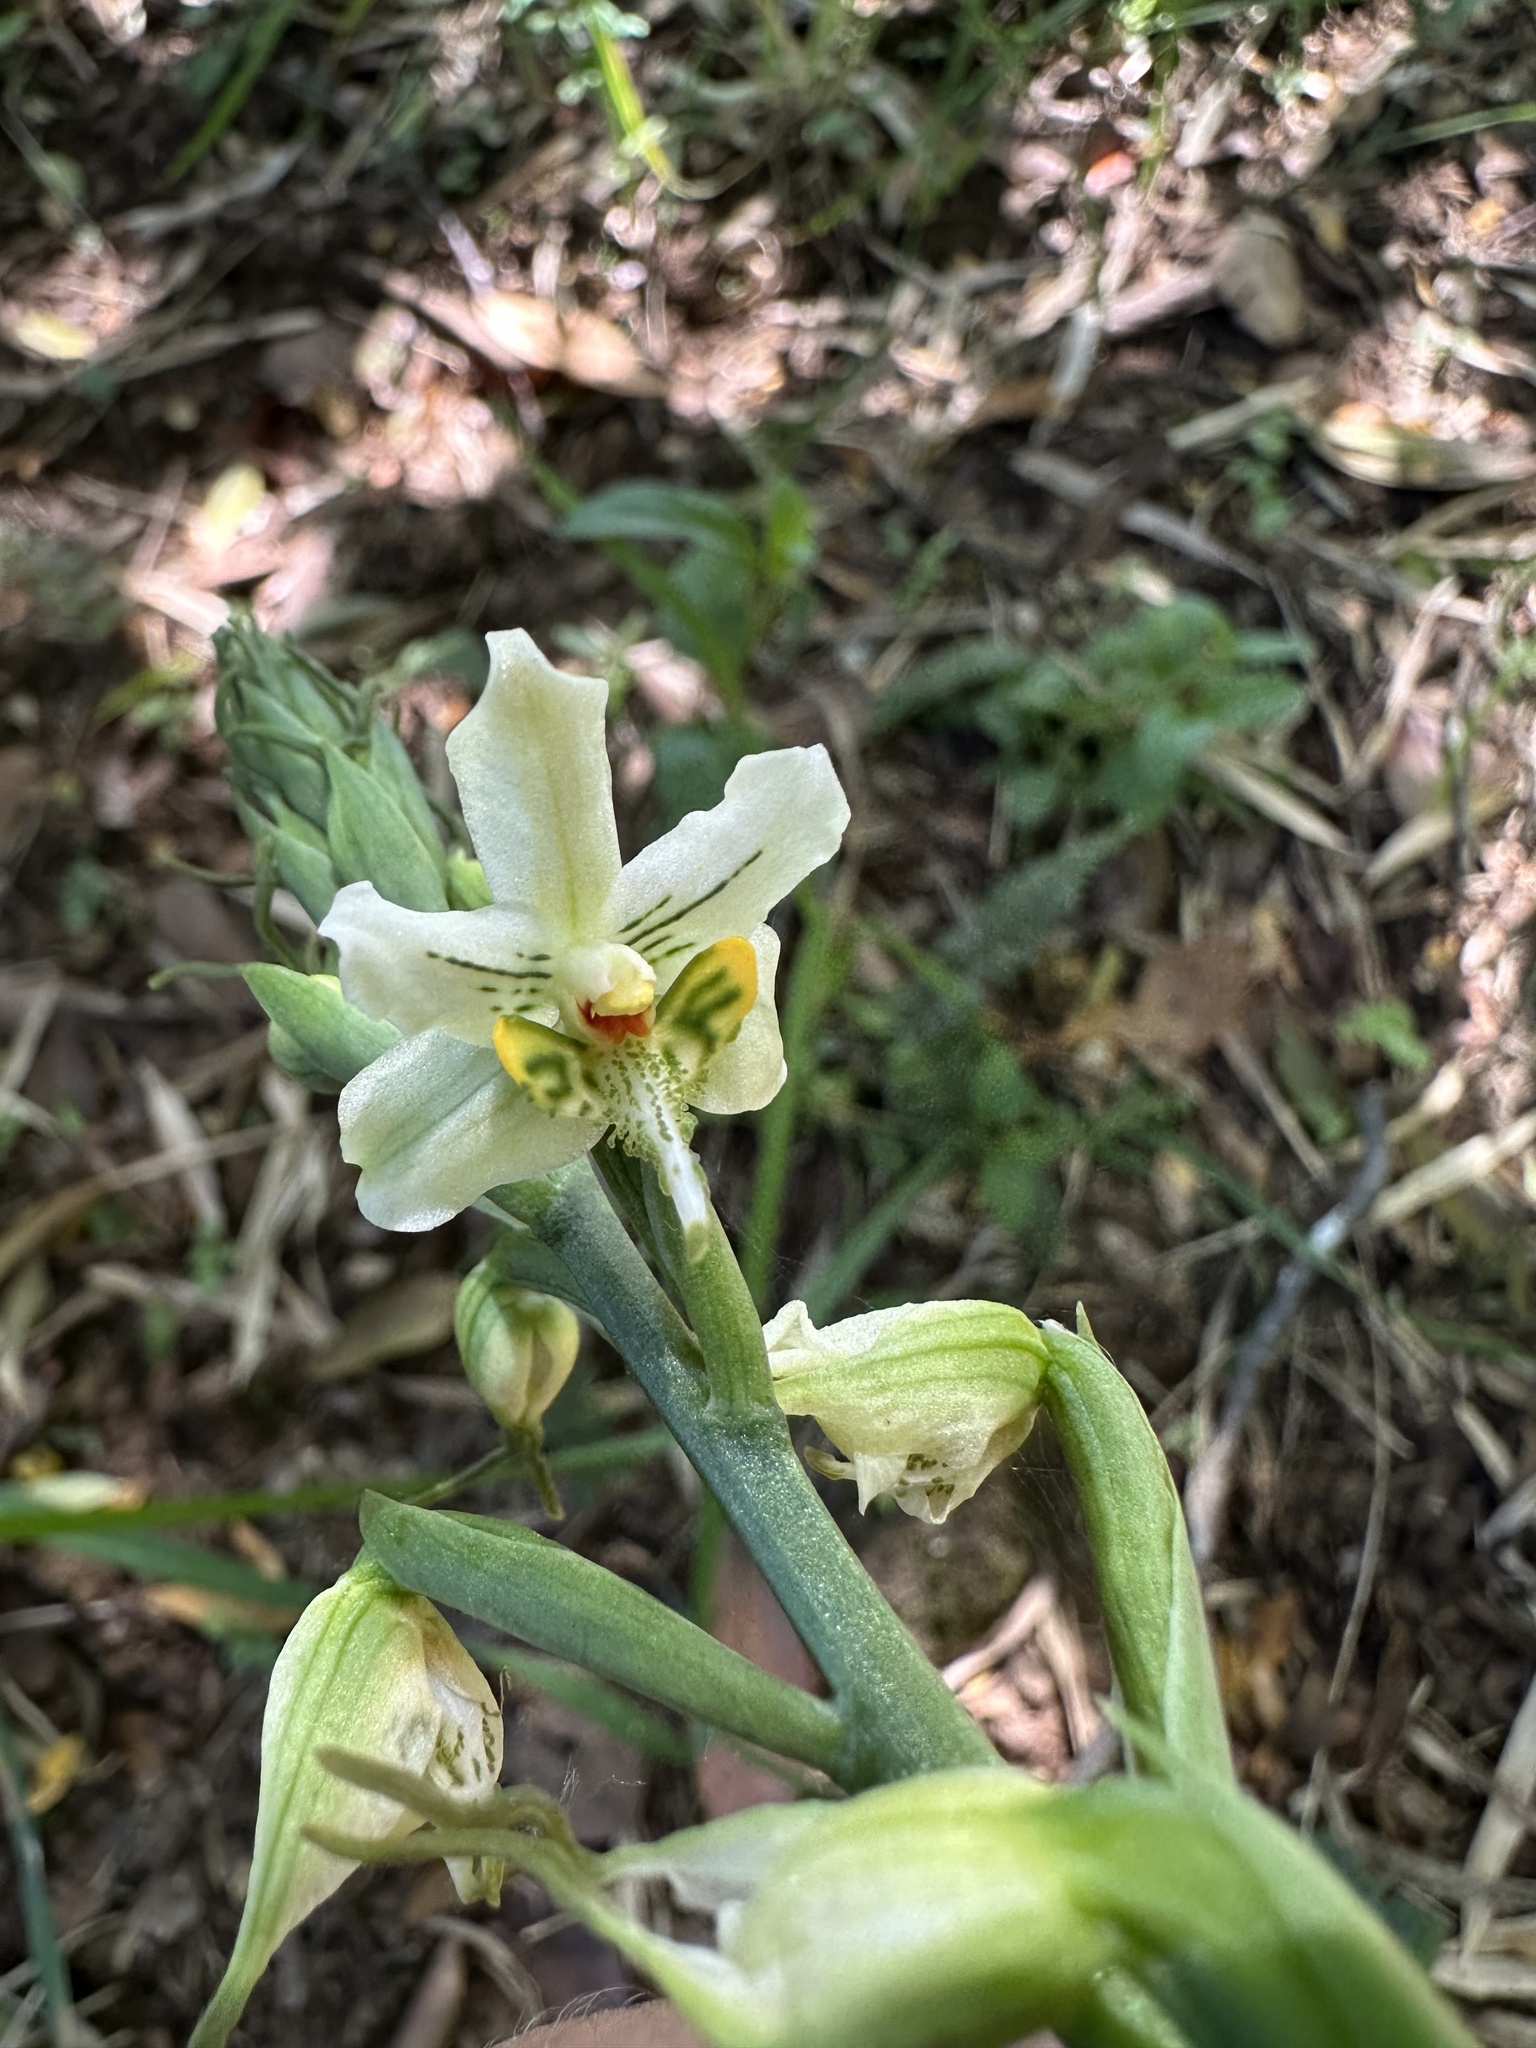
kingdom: Plantae
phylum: Tracheophyta
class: Liliopsida
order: Asparagales
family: Orchidaceae
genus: Gavilea
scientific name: Gavilea araucana
